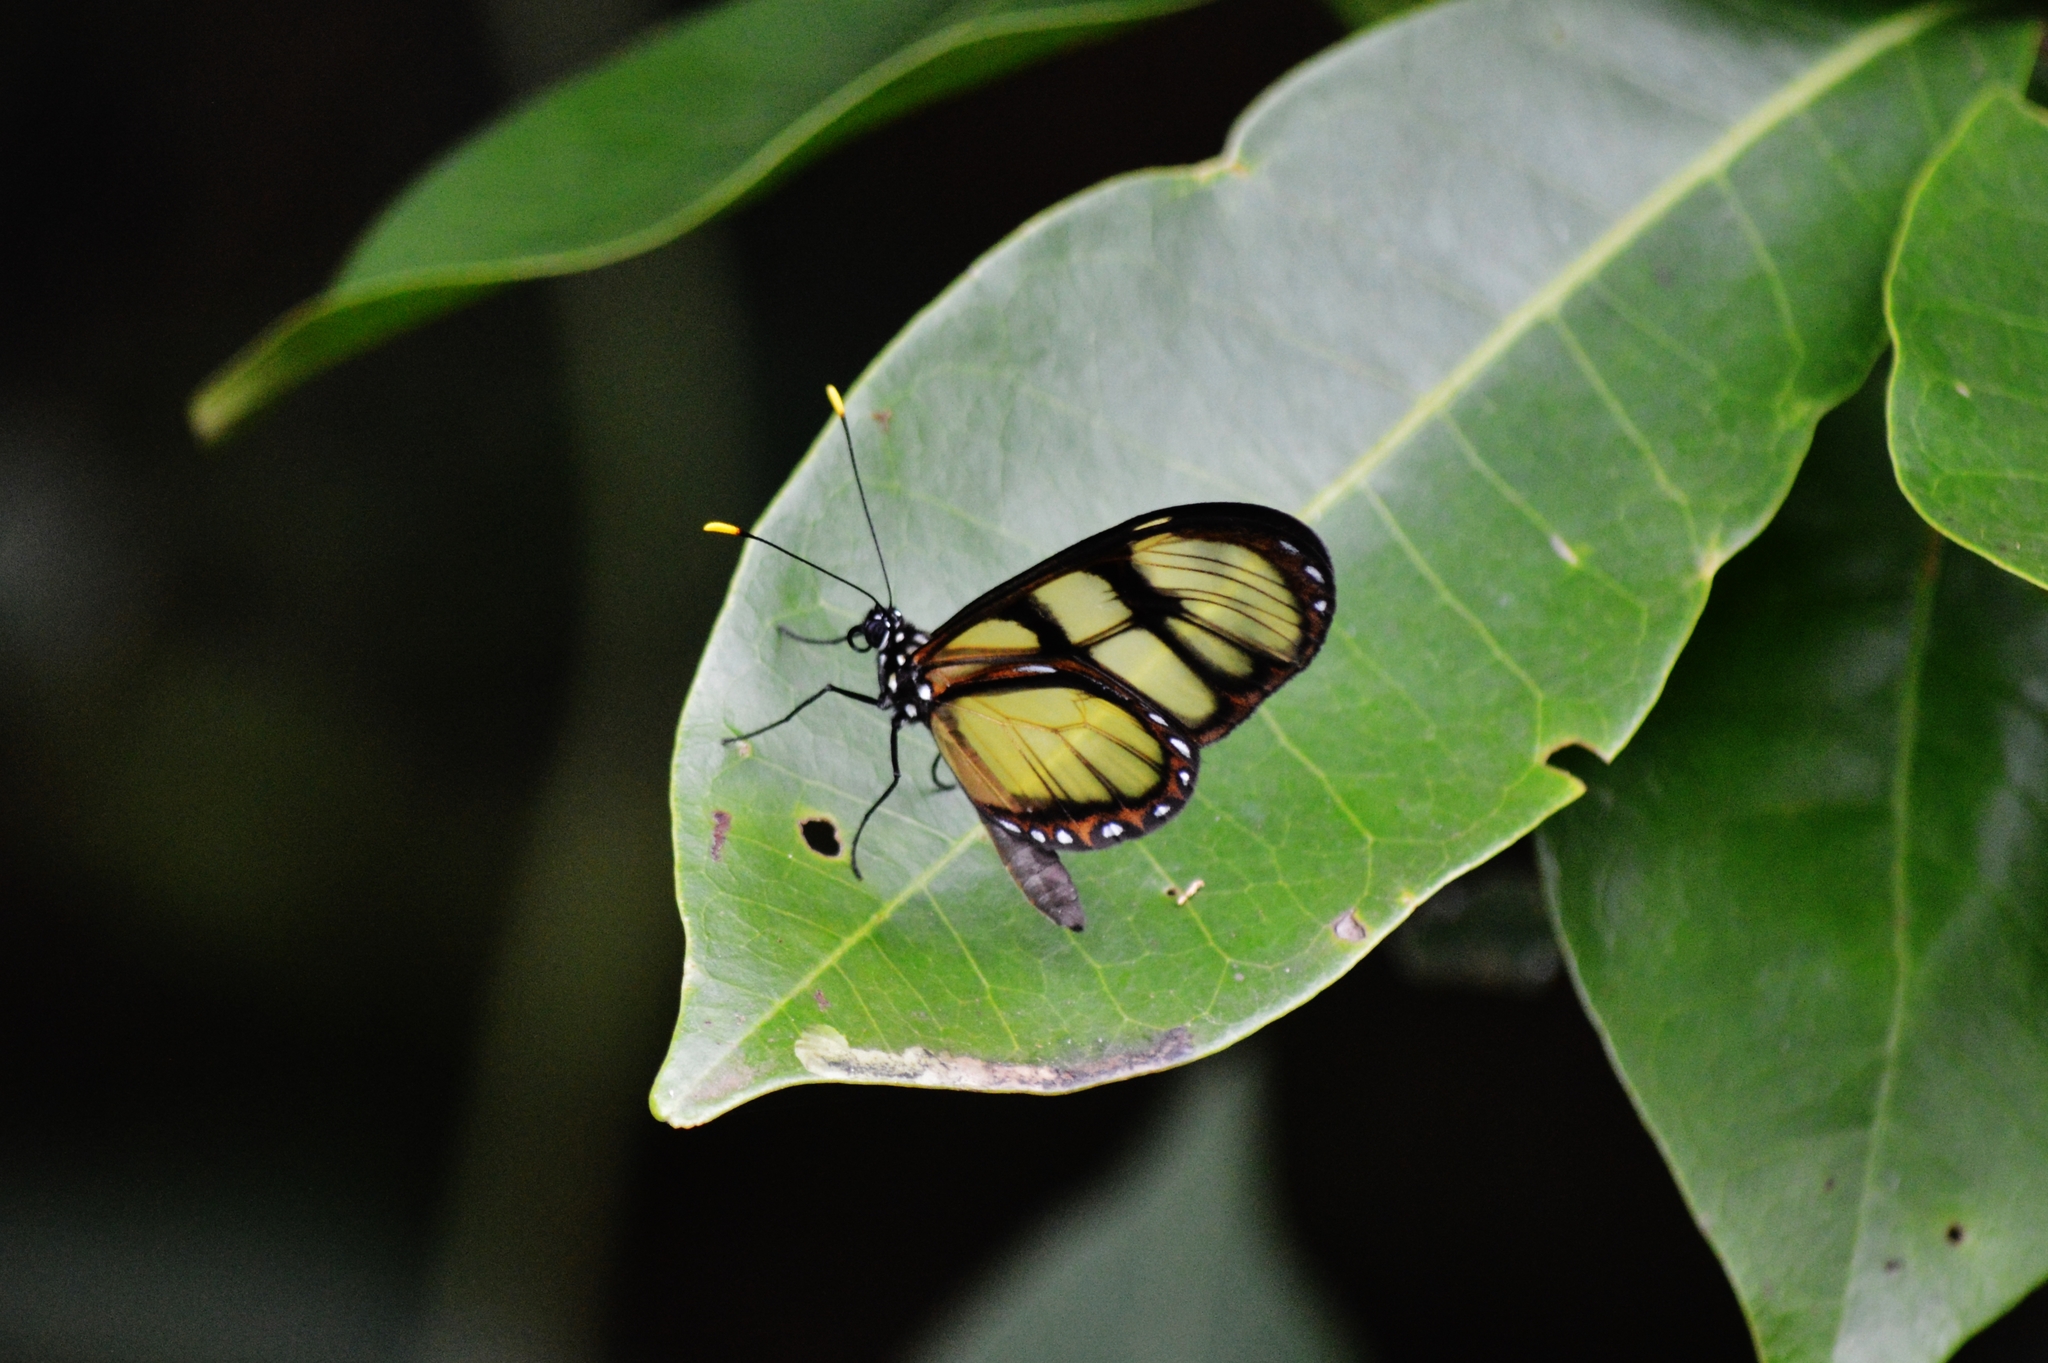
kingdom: Animalia
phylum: Arthropoda
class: Insecta
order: Lepidoptera
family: Nymphalidae
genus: Dircenna
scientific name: Dircenna dero
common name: Dero clearwing
